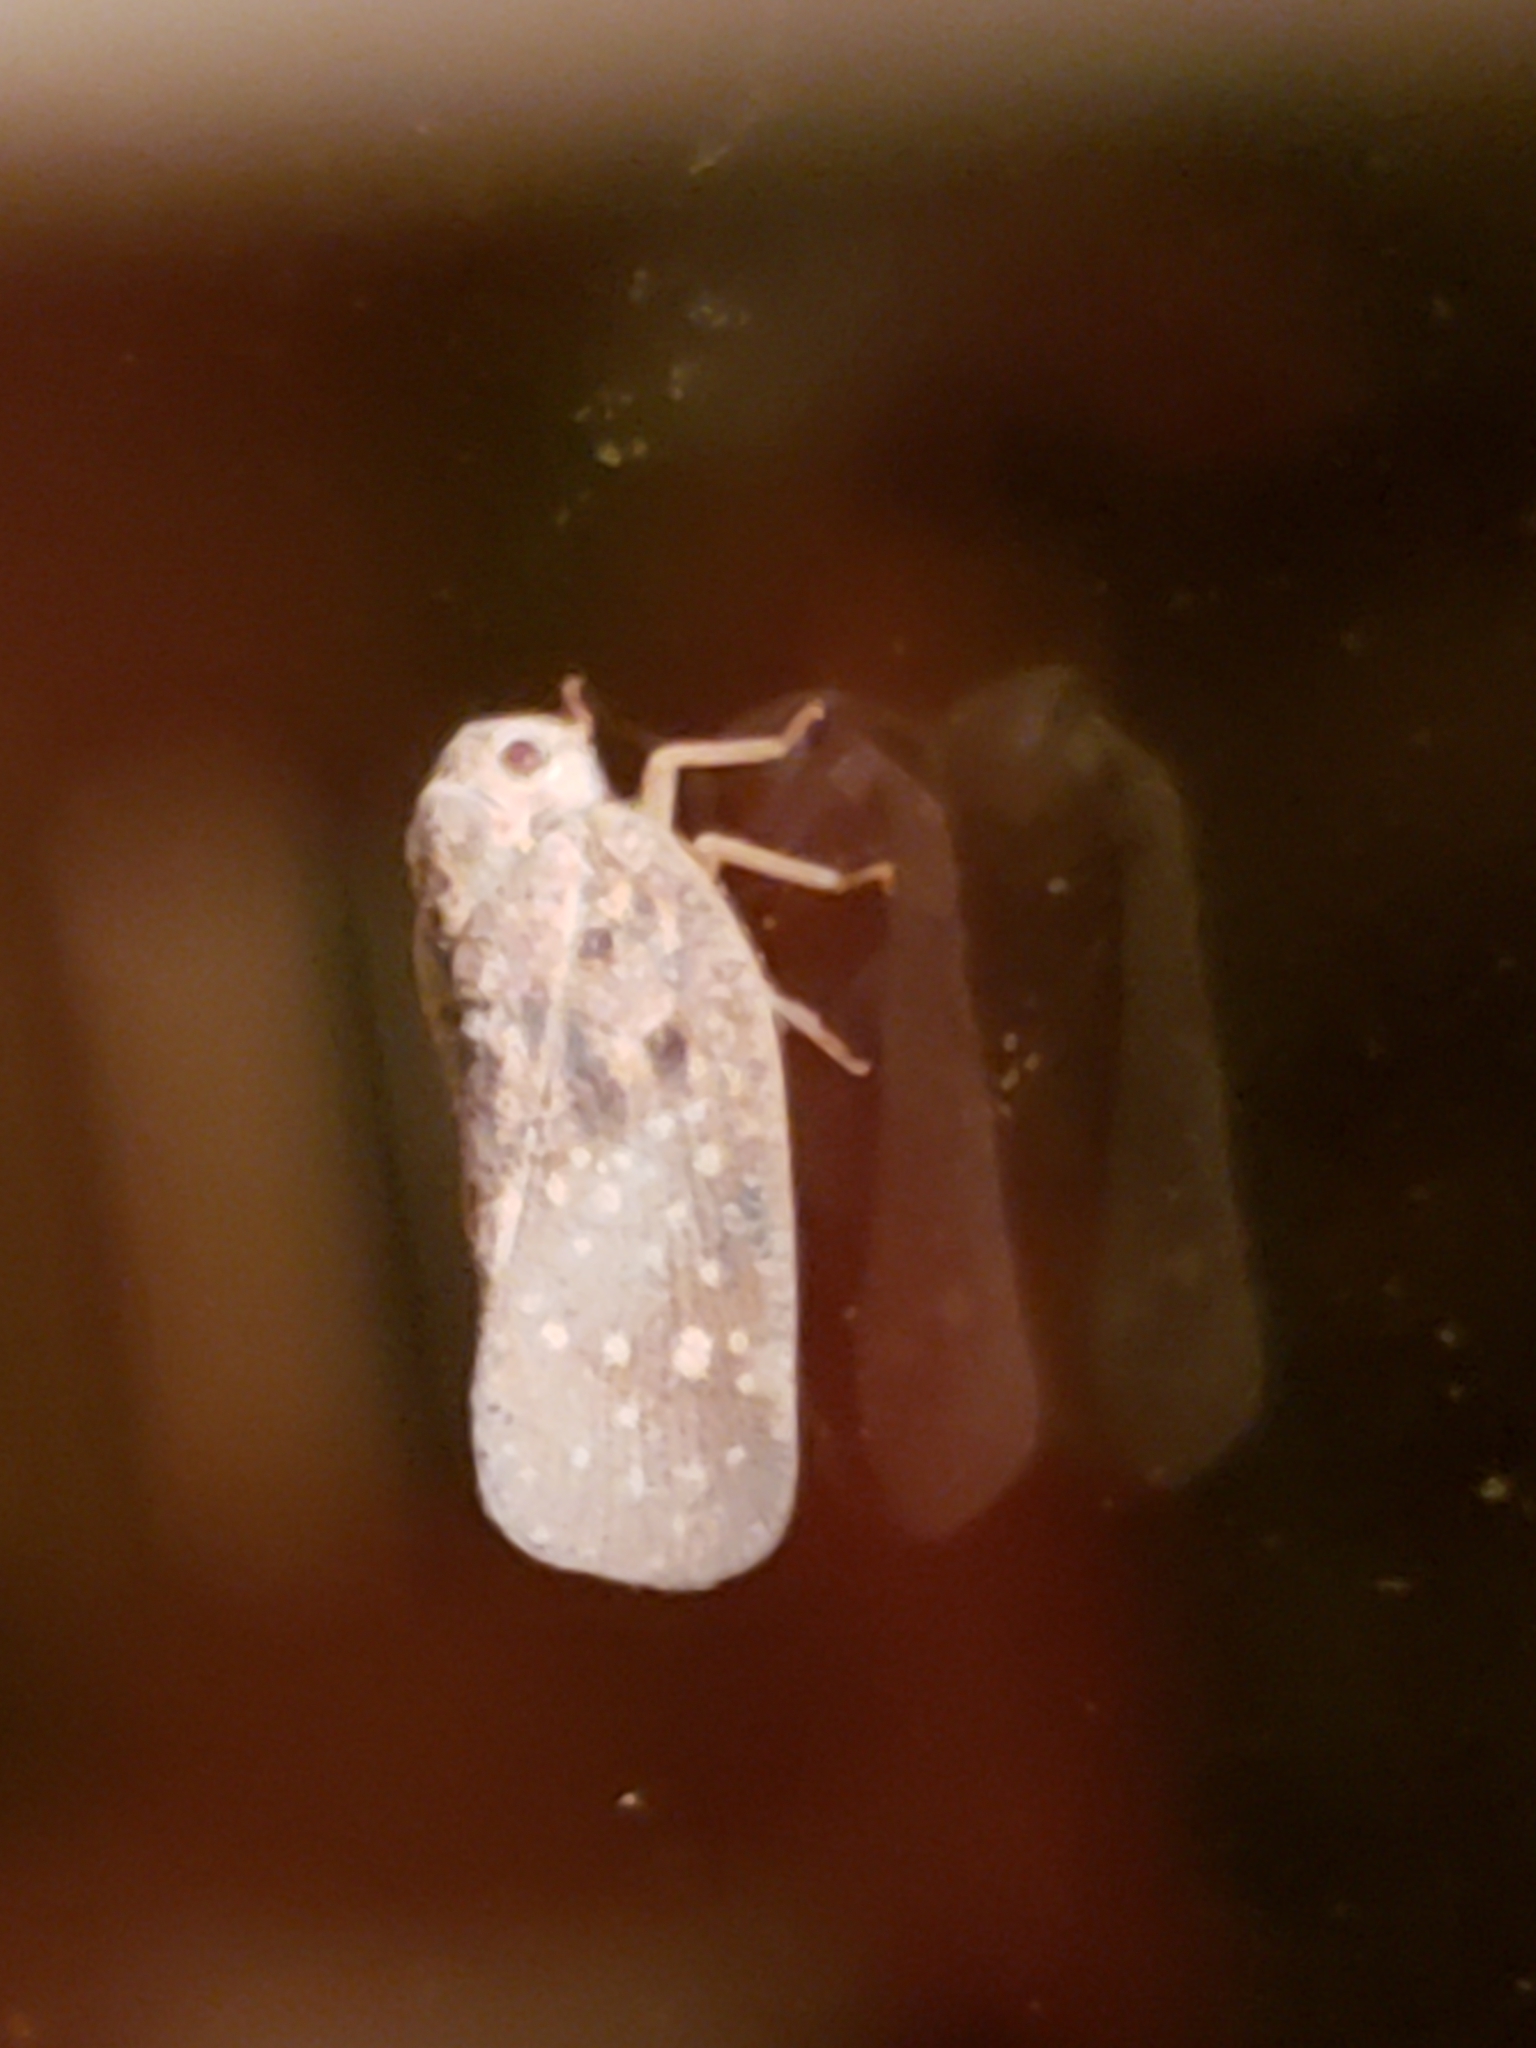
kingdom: Animalia
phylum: Arthropoda
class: Insecta
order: Hemiptera
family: Flatidae
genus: Metcalfa
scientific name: Metcalfa pruinosa
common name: Citrus flatid planthopper
